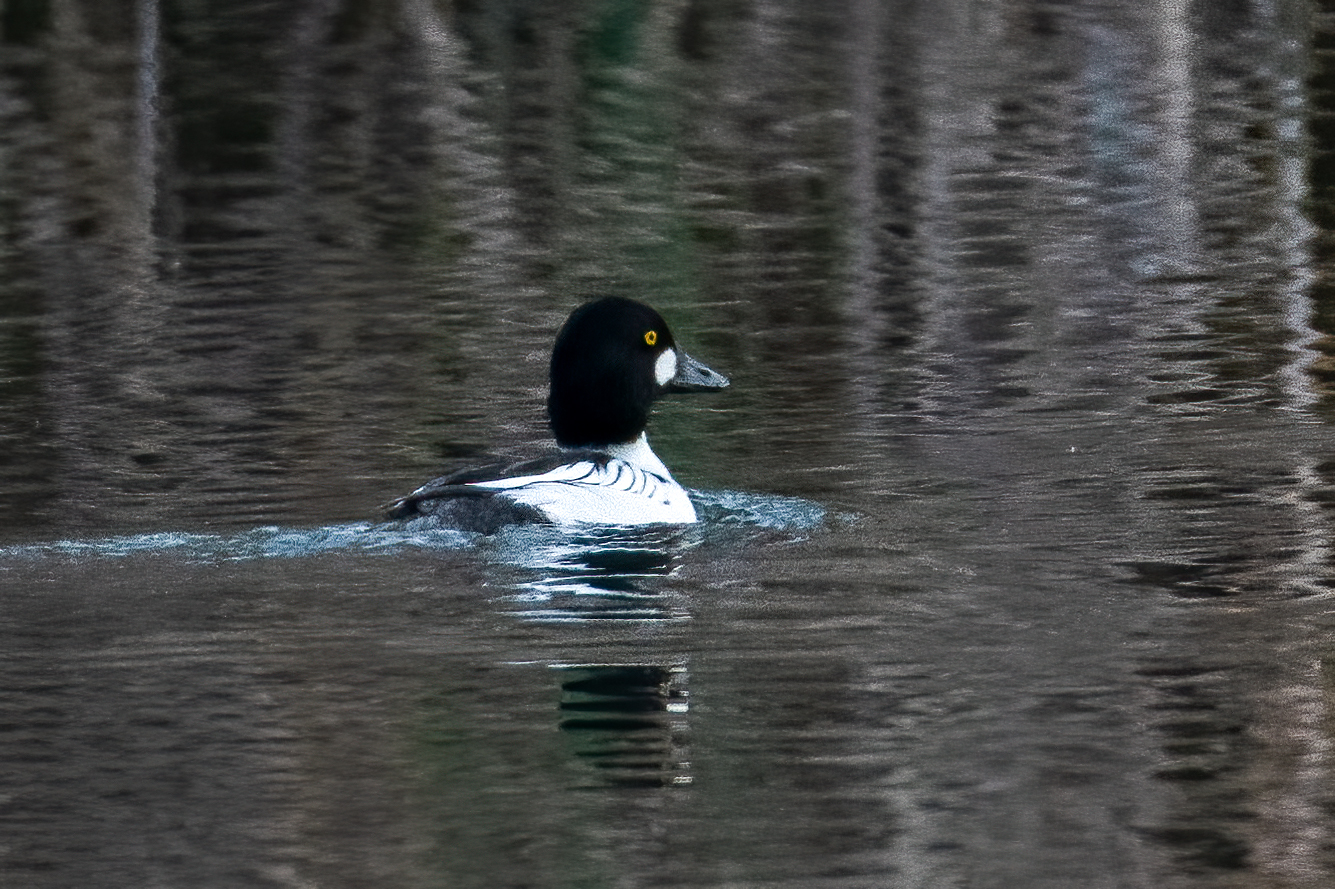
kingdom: Animalia
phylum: Chordata
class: Aves
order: Anseriformes
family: Anatidae
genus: Bucephala
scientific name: Bucephala clangula
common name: Common goldeneye
